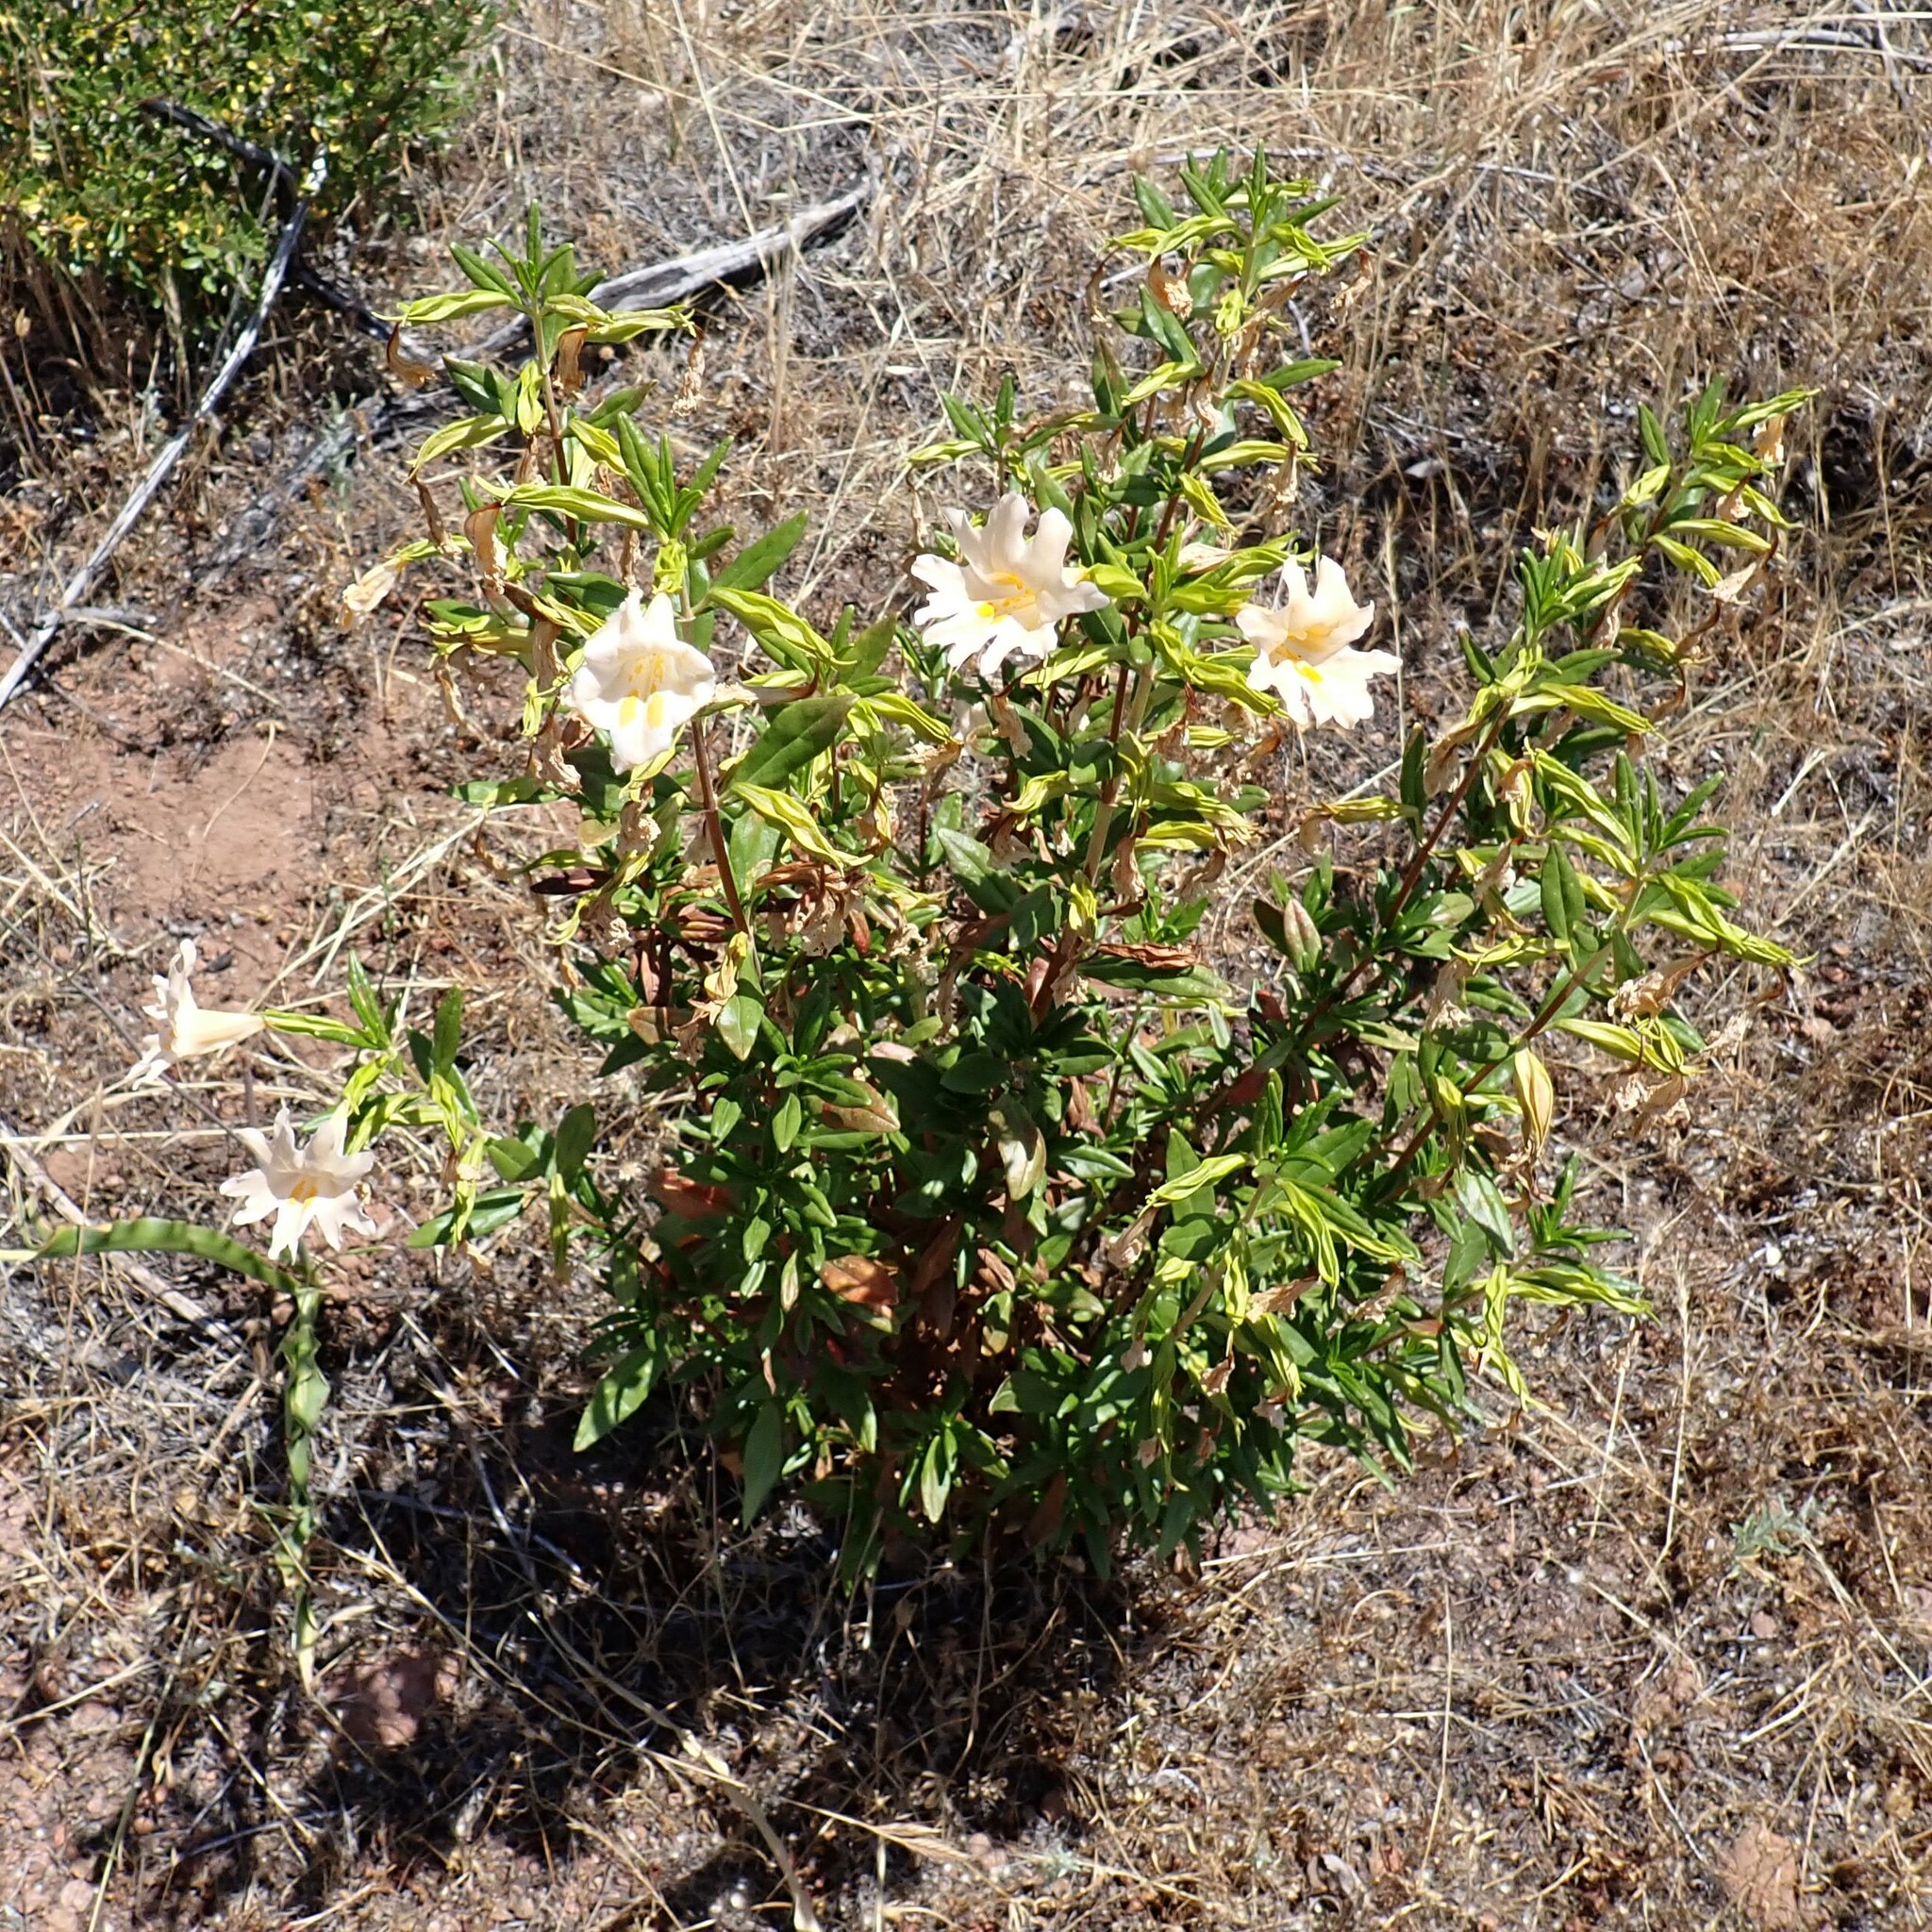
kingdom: Plantae
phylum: Tracheophyta
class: Magnoliopsida
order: Lamiales
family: Phrymaceae
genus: Diplacus
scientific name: Diplacus grandiflorus
